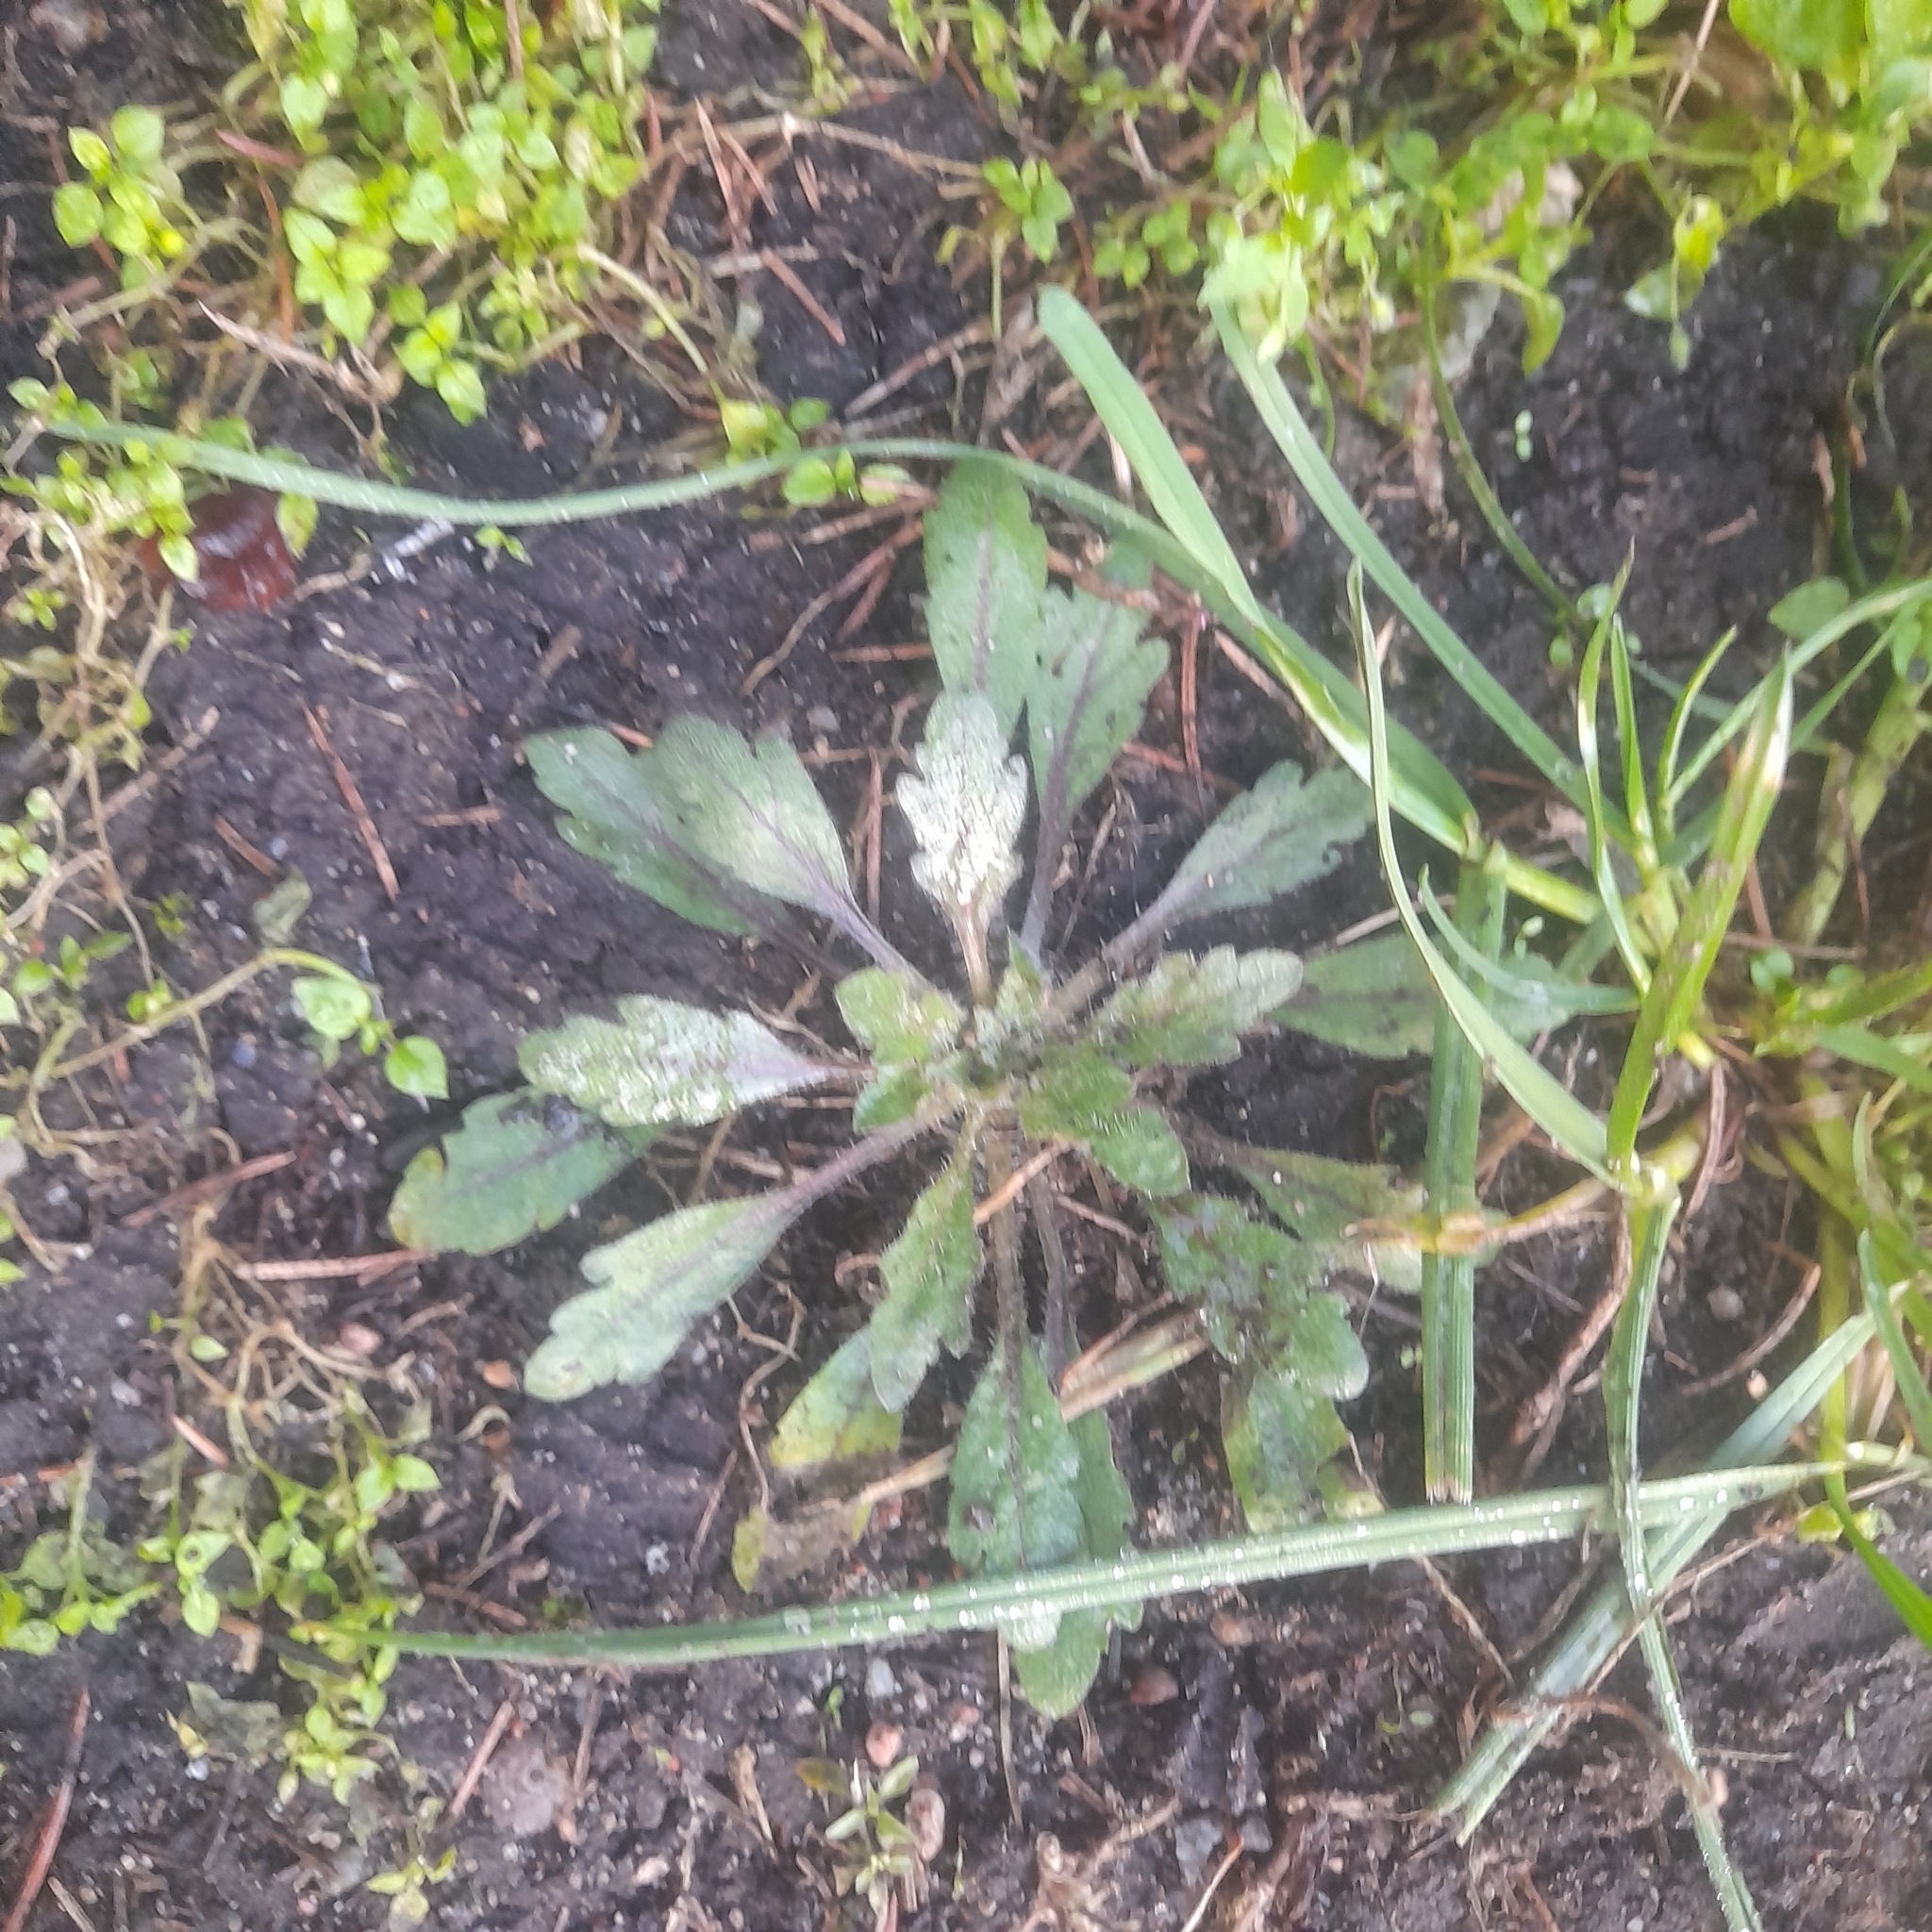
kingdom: Plantae
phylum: Tracheophyta
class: Magnoliopsida
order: Asterales
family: Asteraceae
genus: Erigeron
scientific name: Erigeron canadensis
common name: Canadian fleabane
